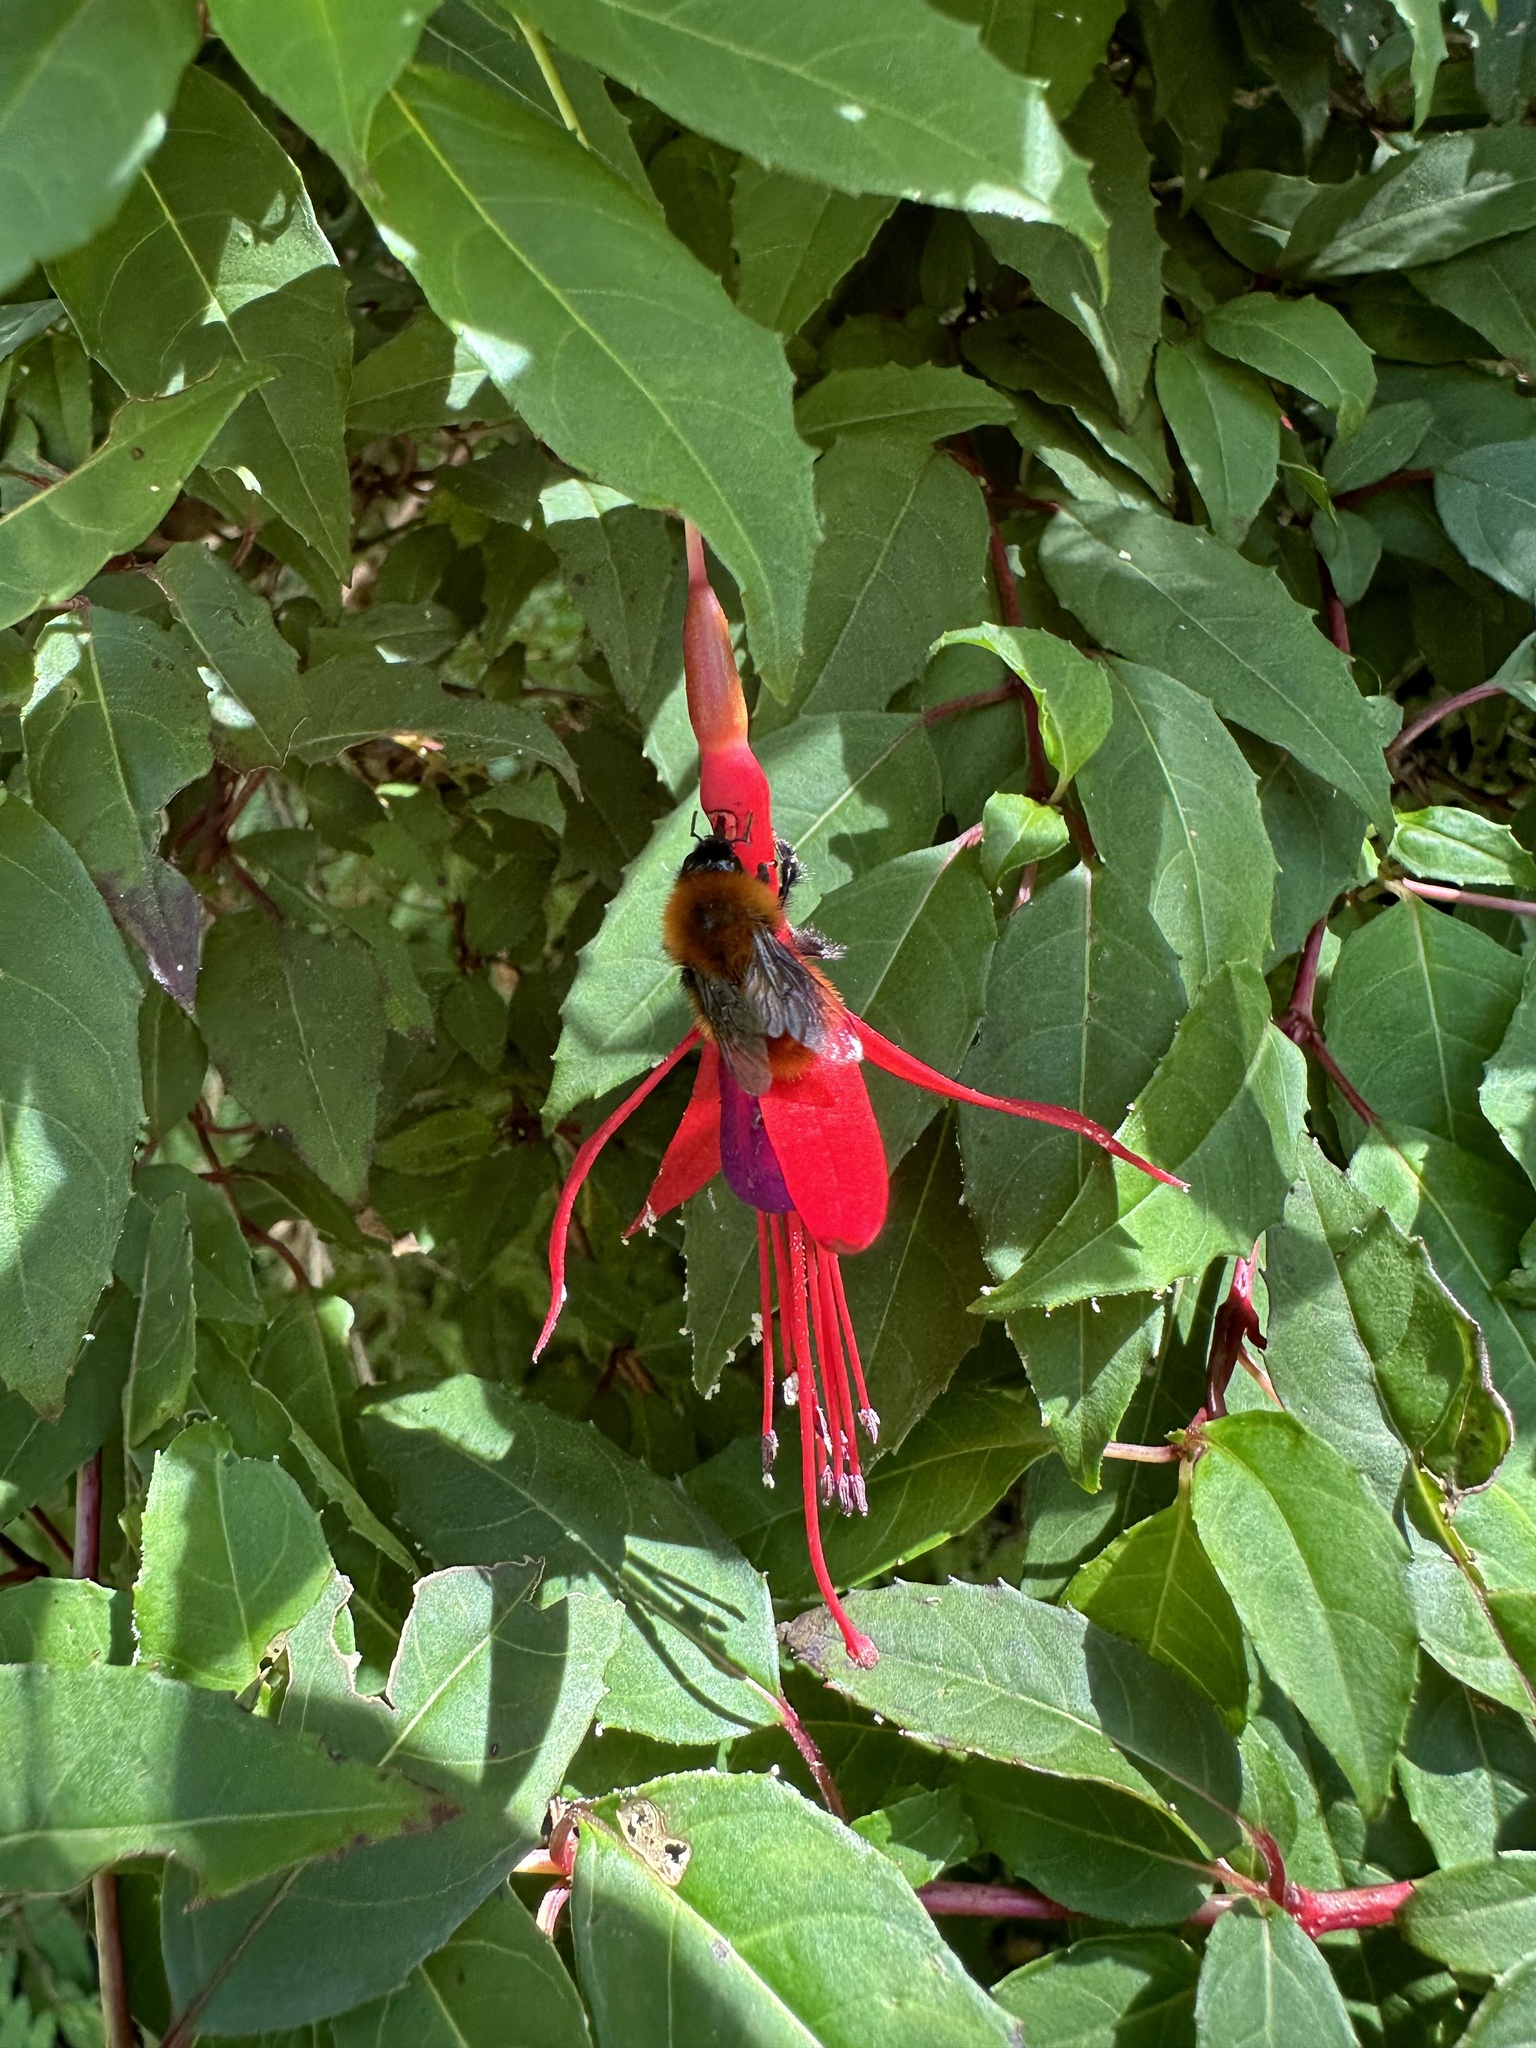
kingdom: Animalia
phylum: Arthropoda
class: Insecta
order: Hymenoptera
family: Apidae
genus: Bombus
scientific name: Bombus dahlbomii
